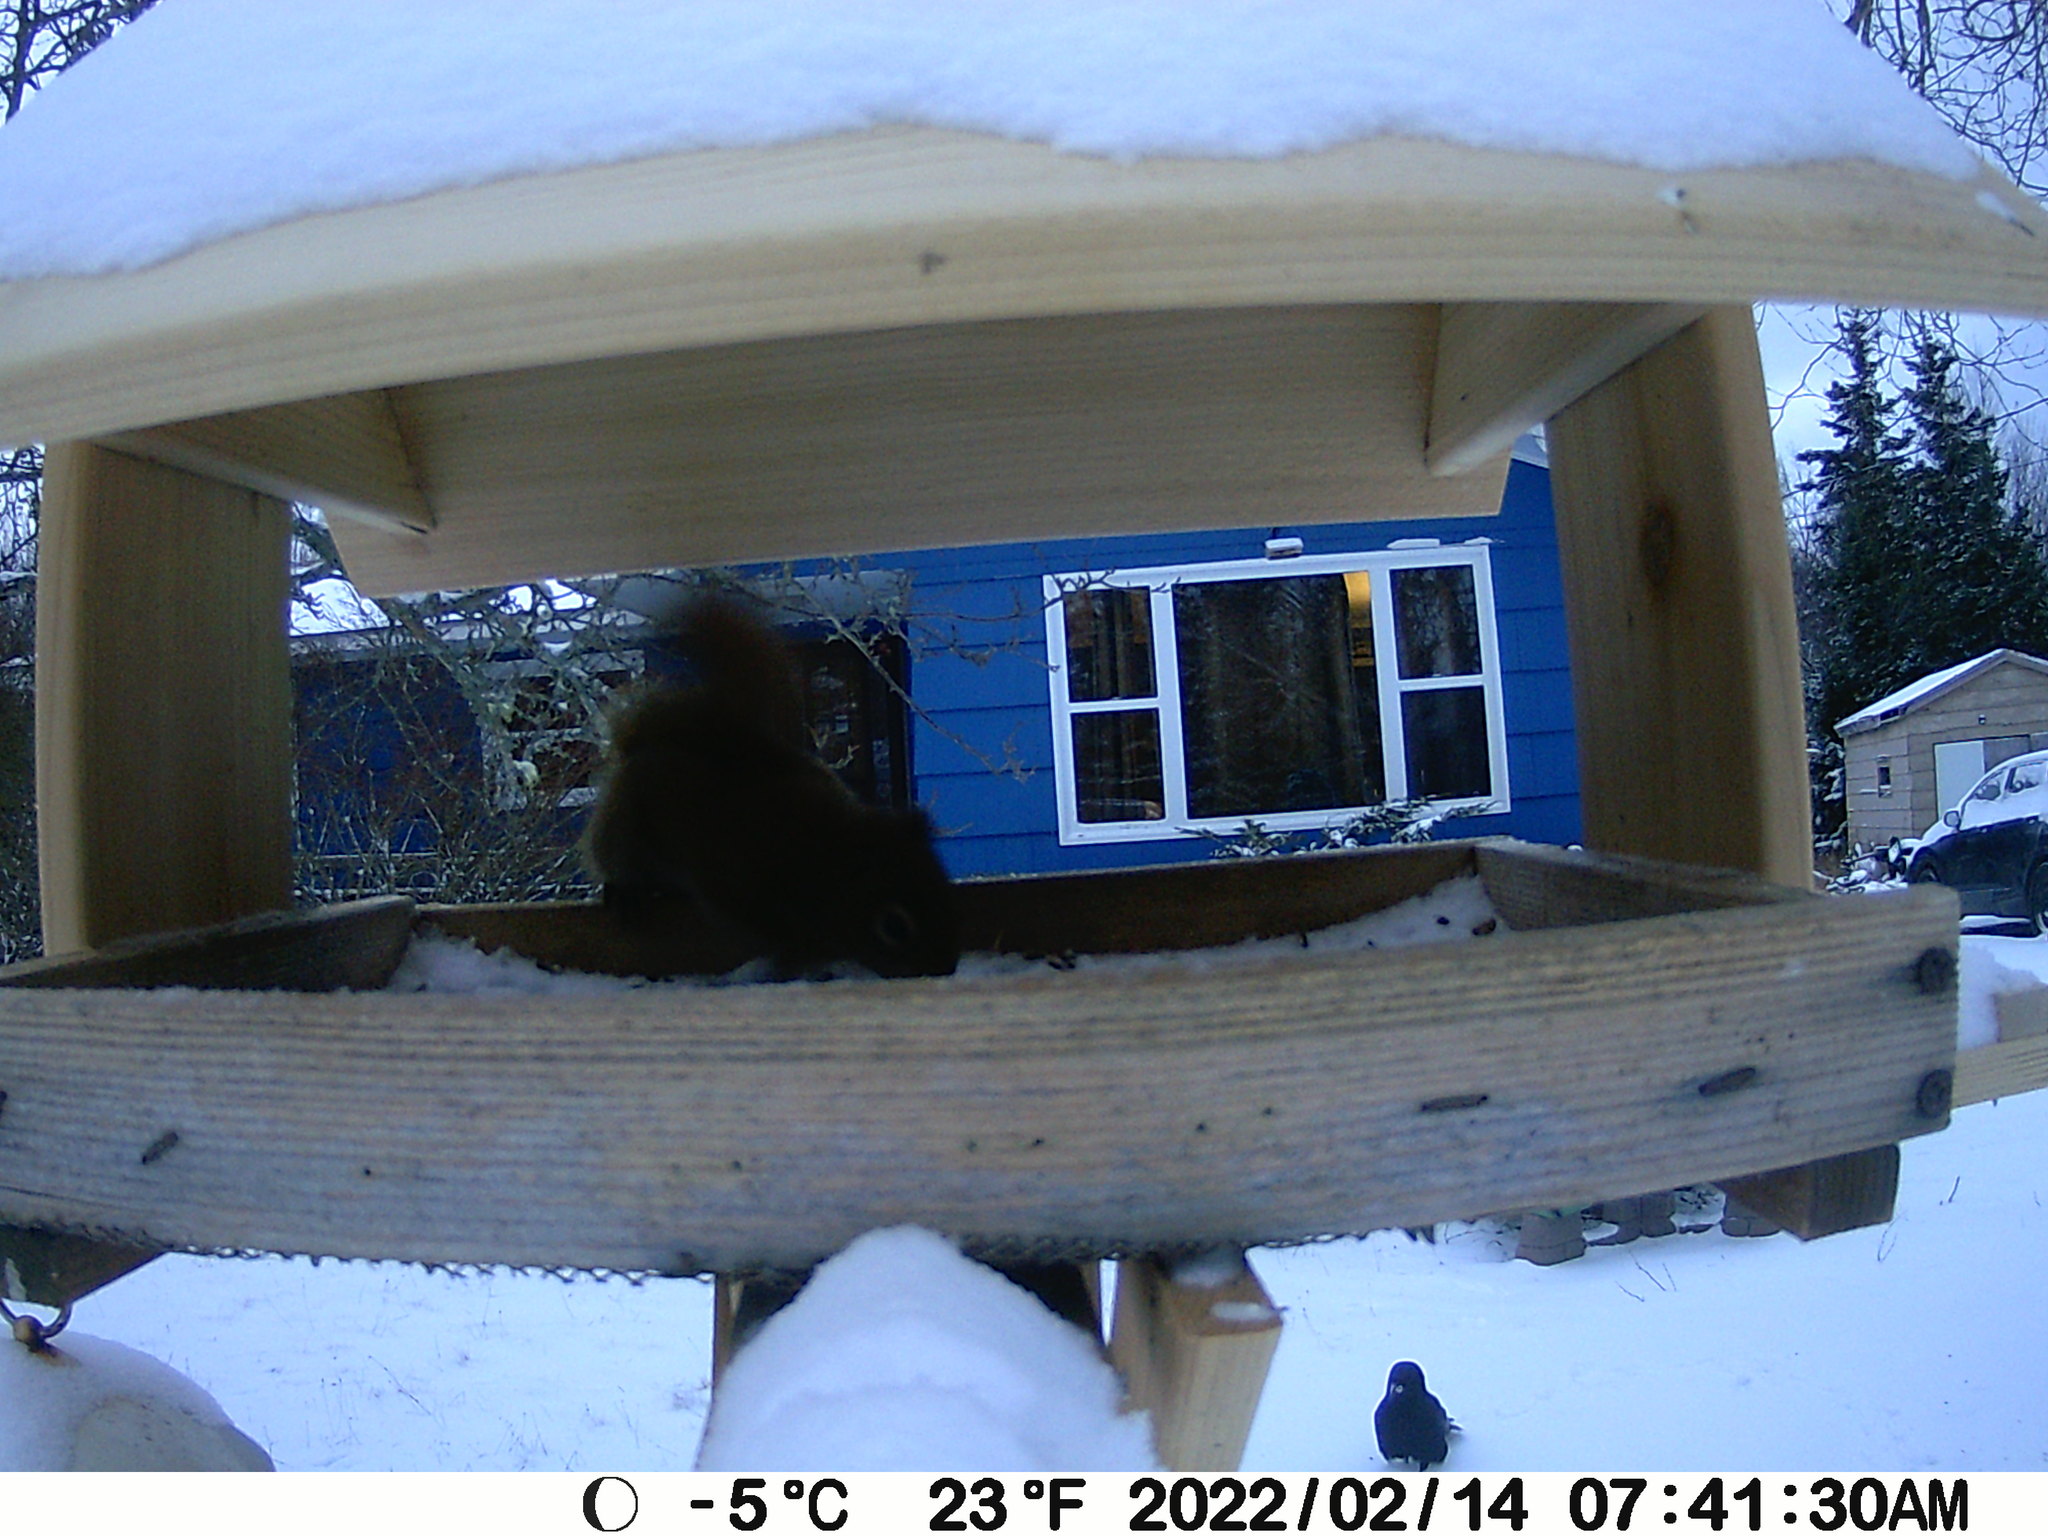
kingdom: Animalia
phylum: Chordata
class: Aves
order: Passeriformes
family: Corvidae
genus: Corvus
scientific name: Corvus brachyrhynchos
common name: American crow
